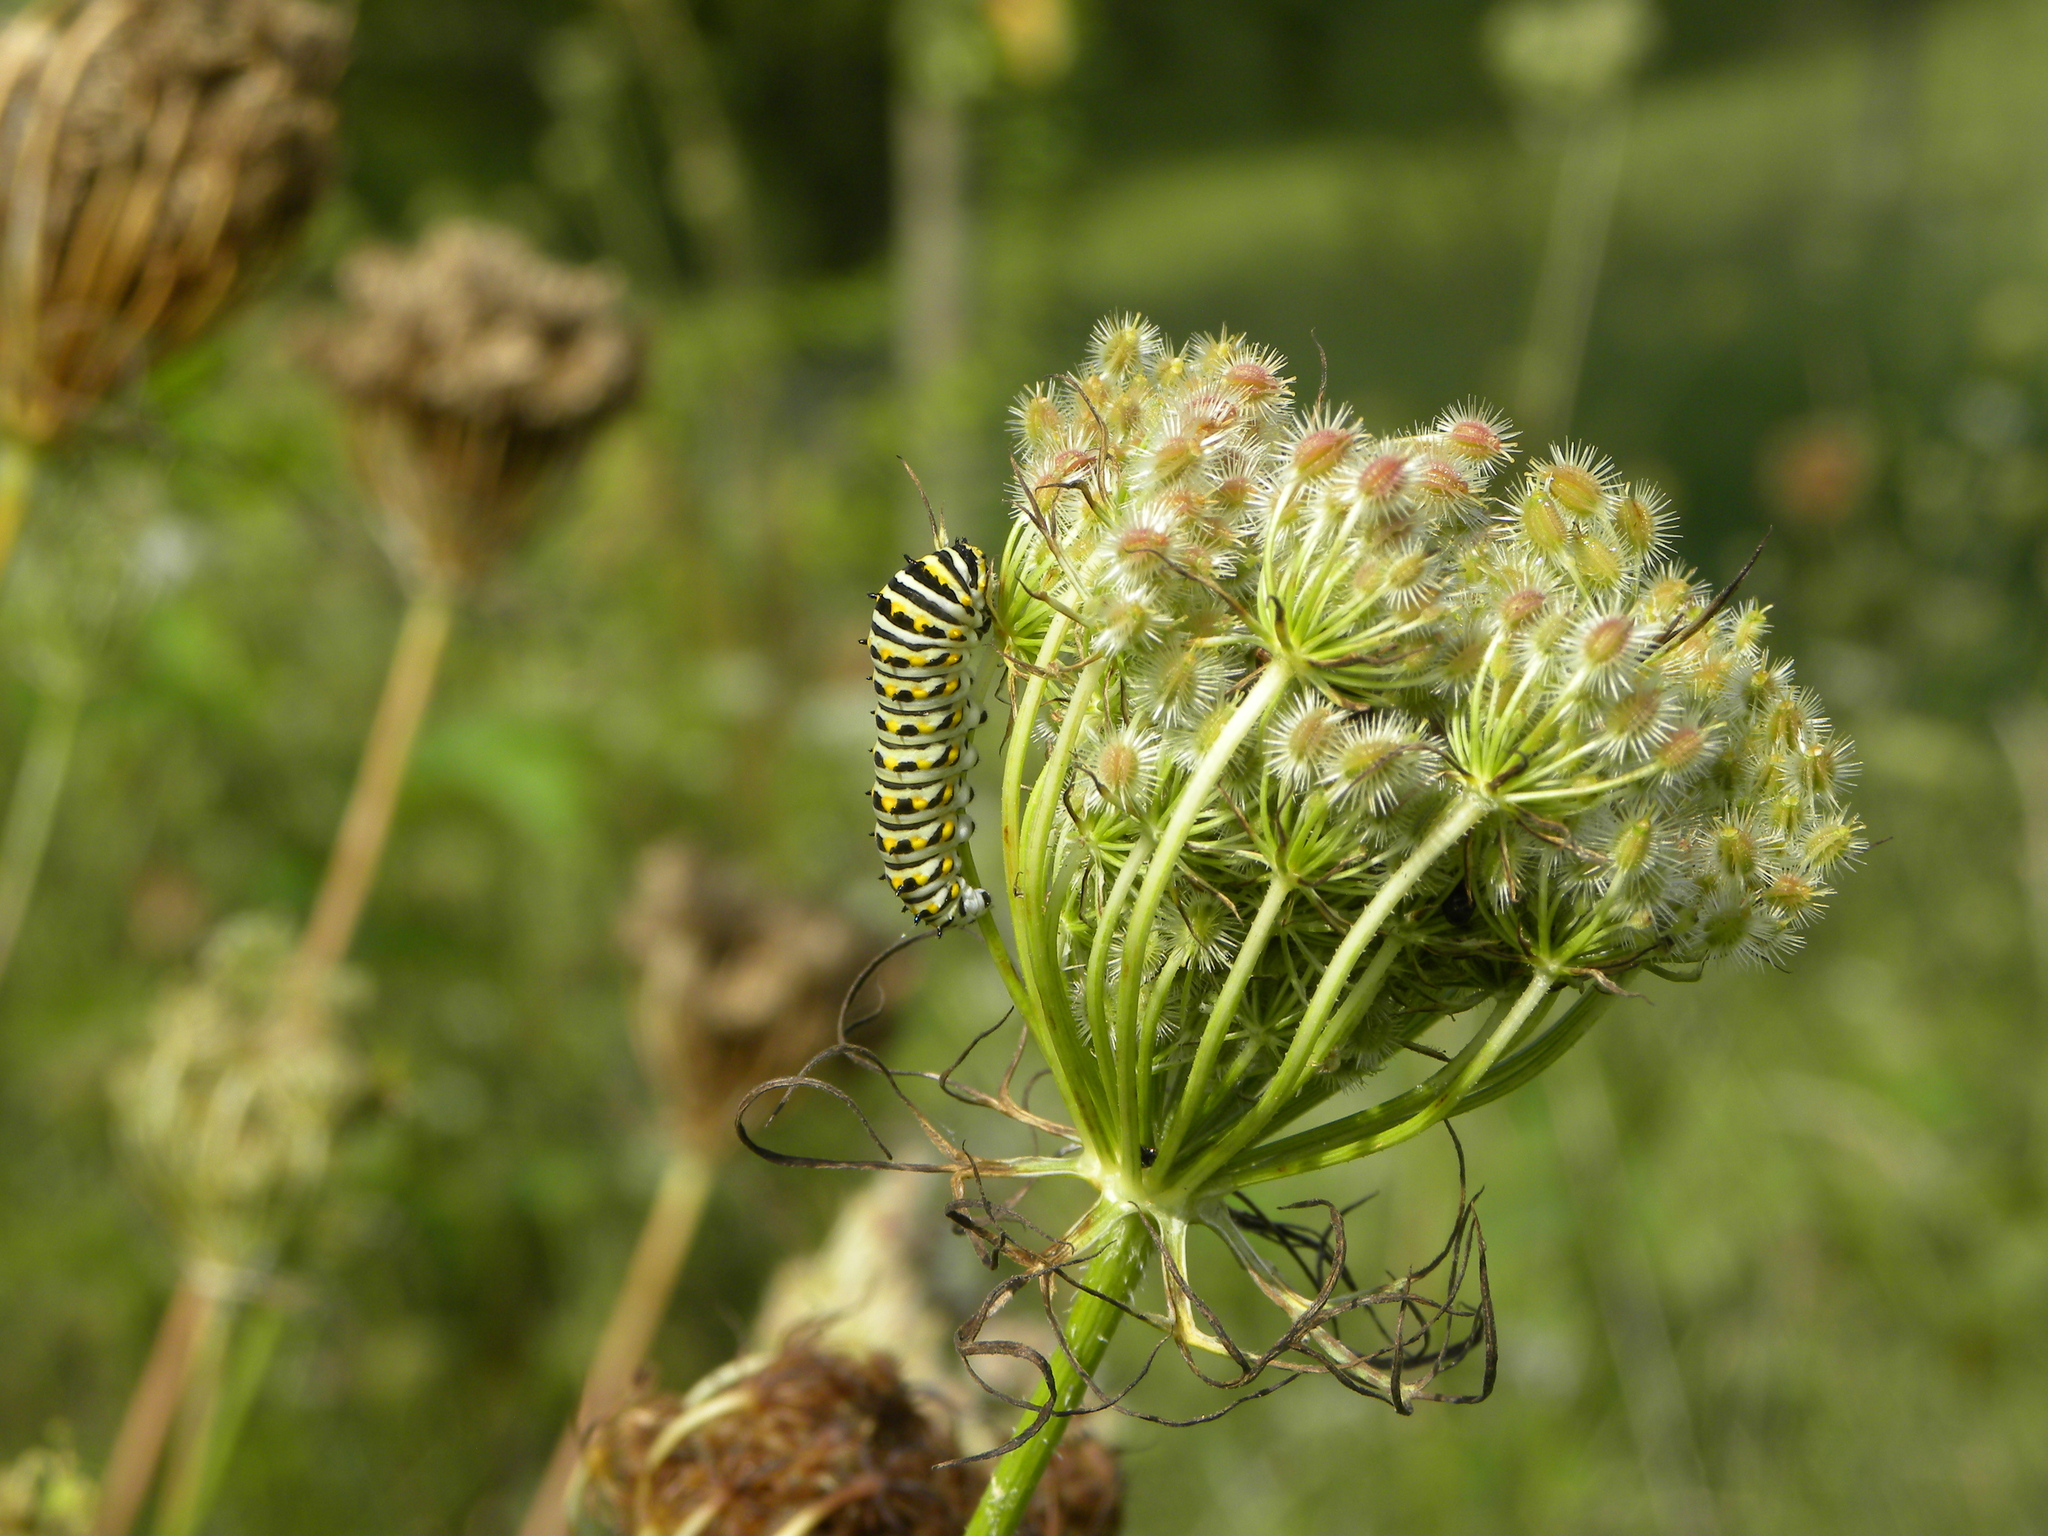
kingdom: Animalia
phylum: Arthropoda
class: Insecta
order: Lepidoptera
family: Papilionidae
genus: Papilio
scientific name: Papilio polyxenes
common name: Black swallowtail
